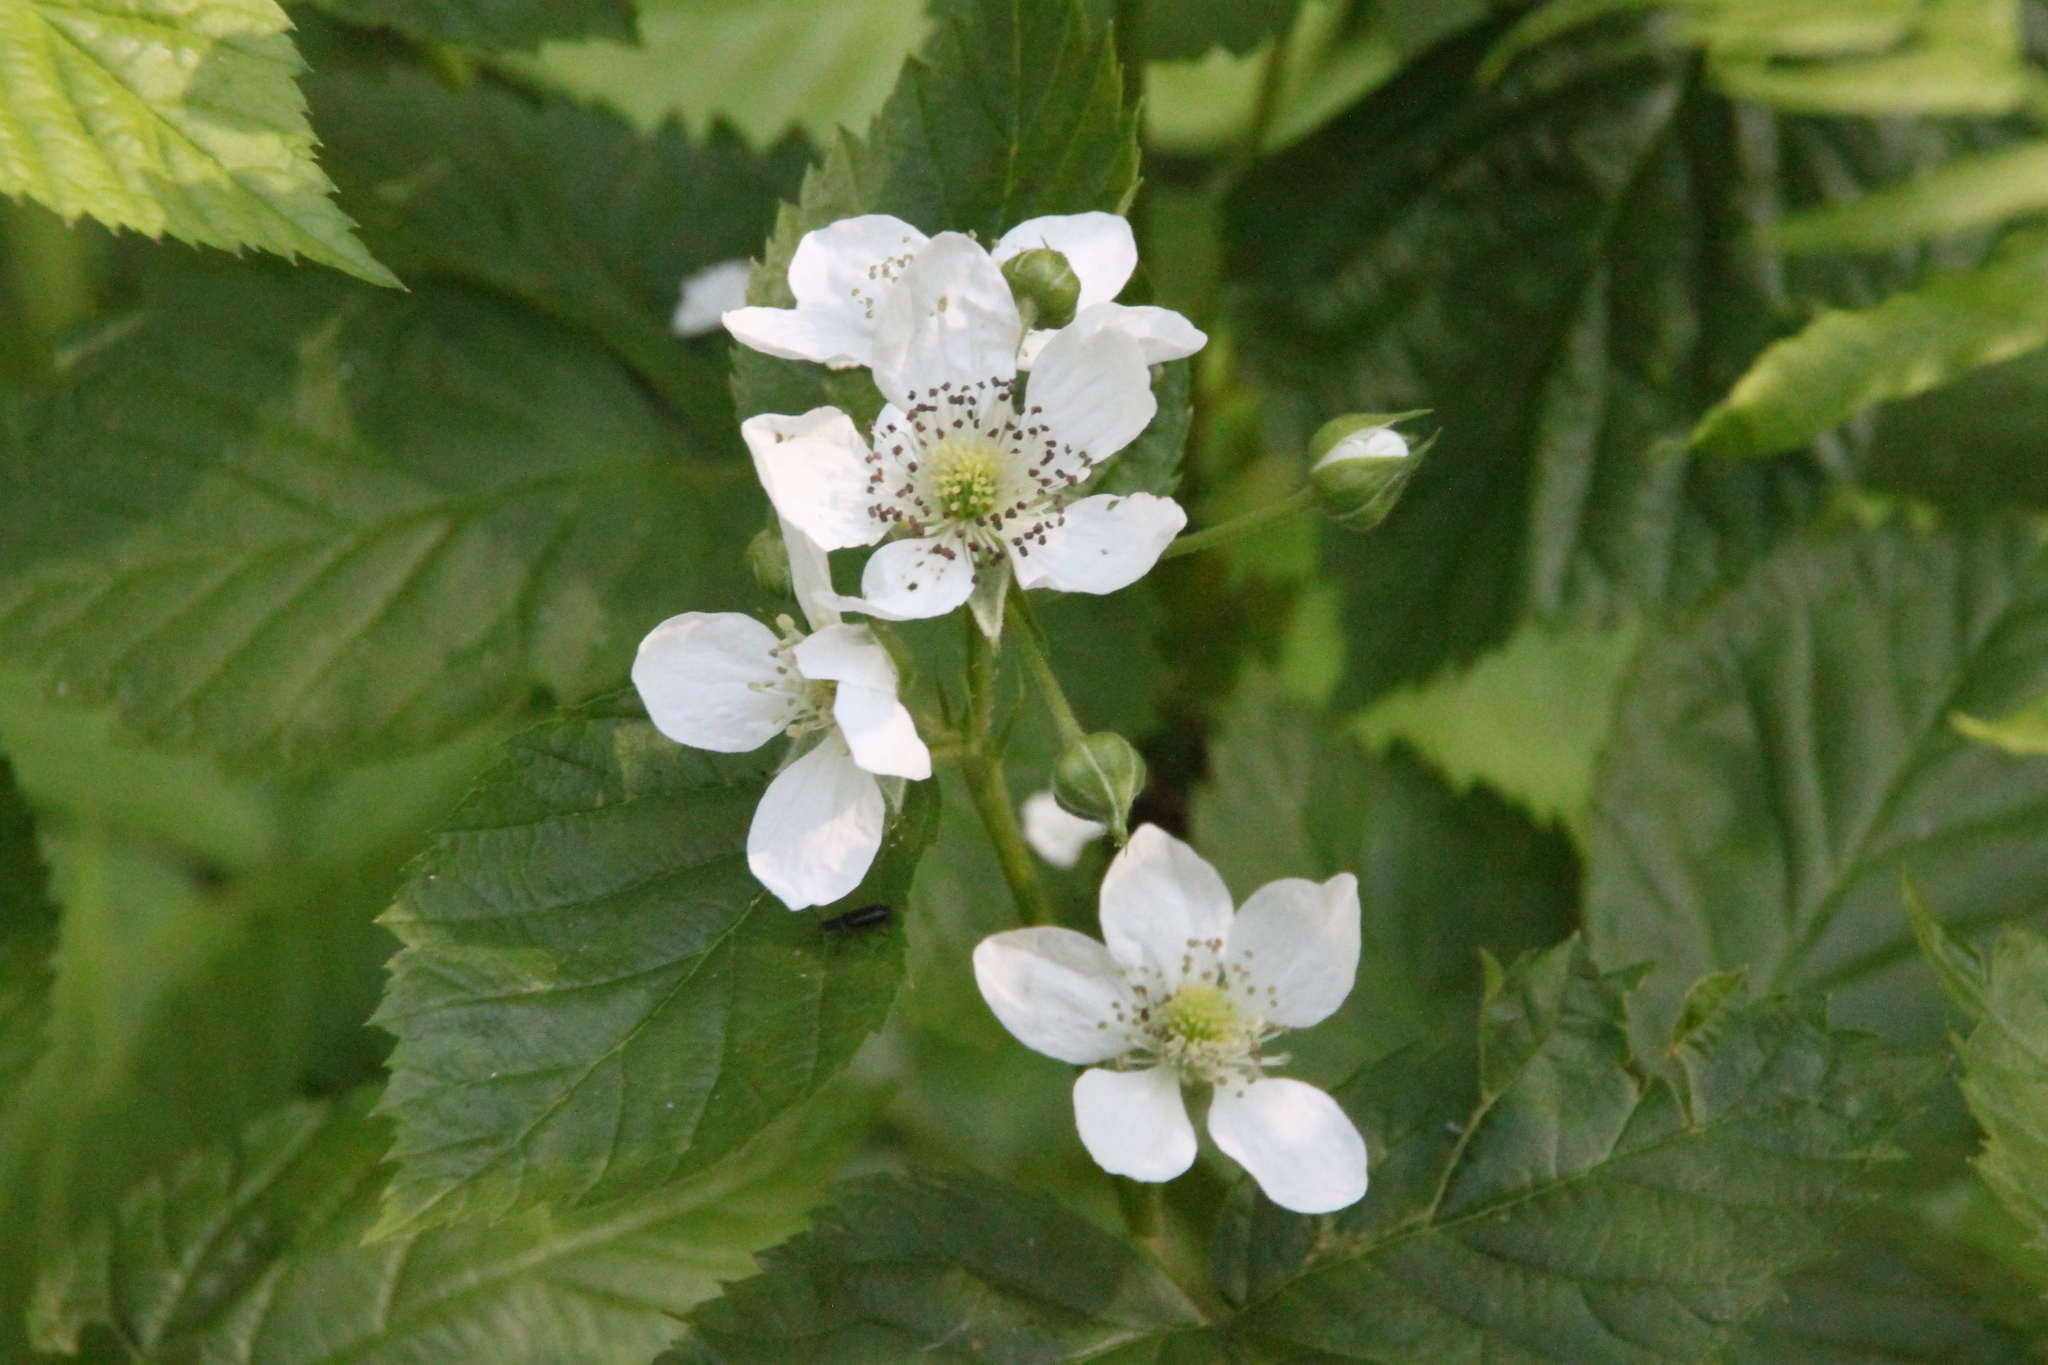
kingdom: Plantae
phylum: Tracheophyta
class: Magnoliopsida
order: Rosales
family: Rosaceae
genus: Rubus
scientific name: Rubus polonicus
